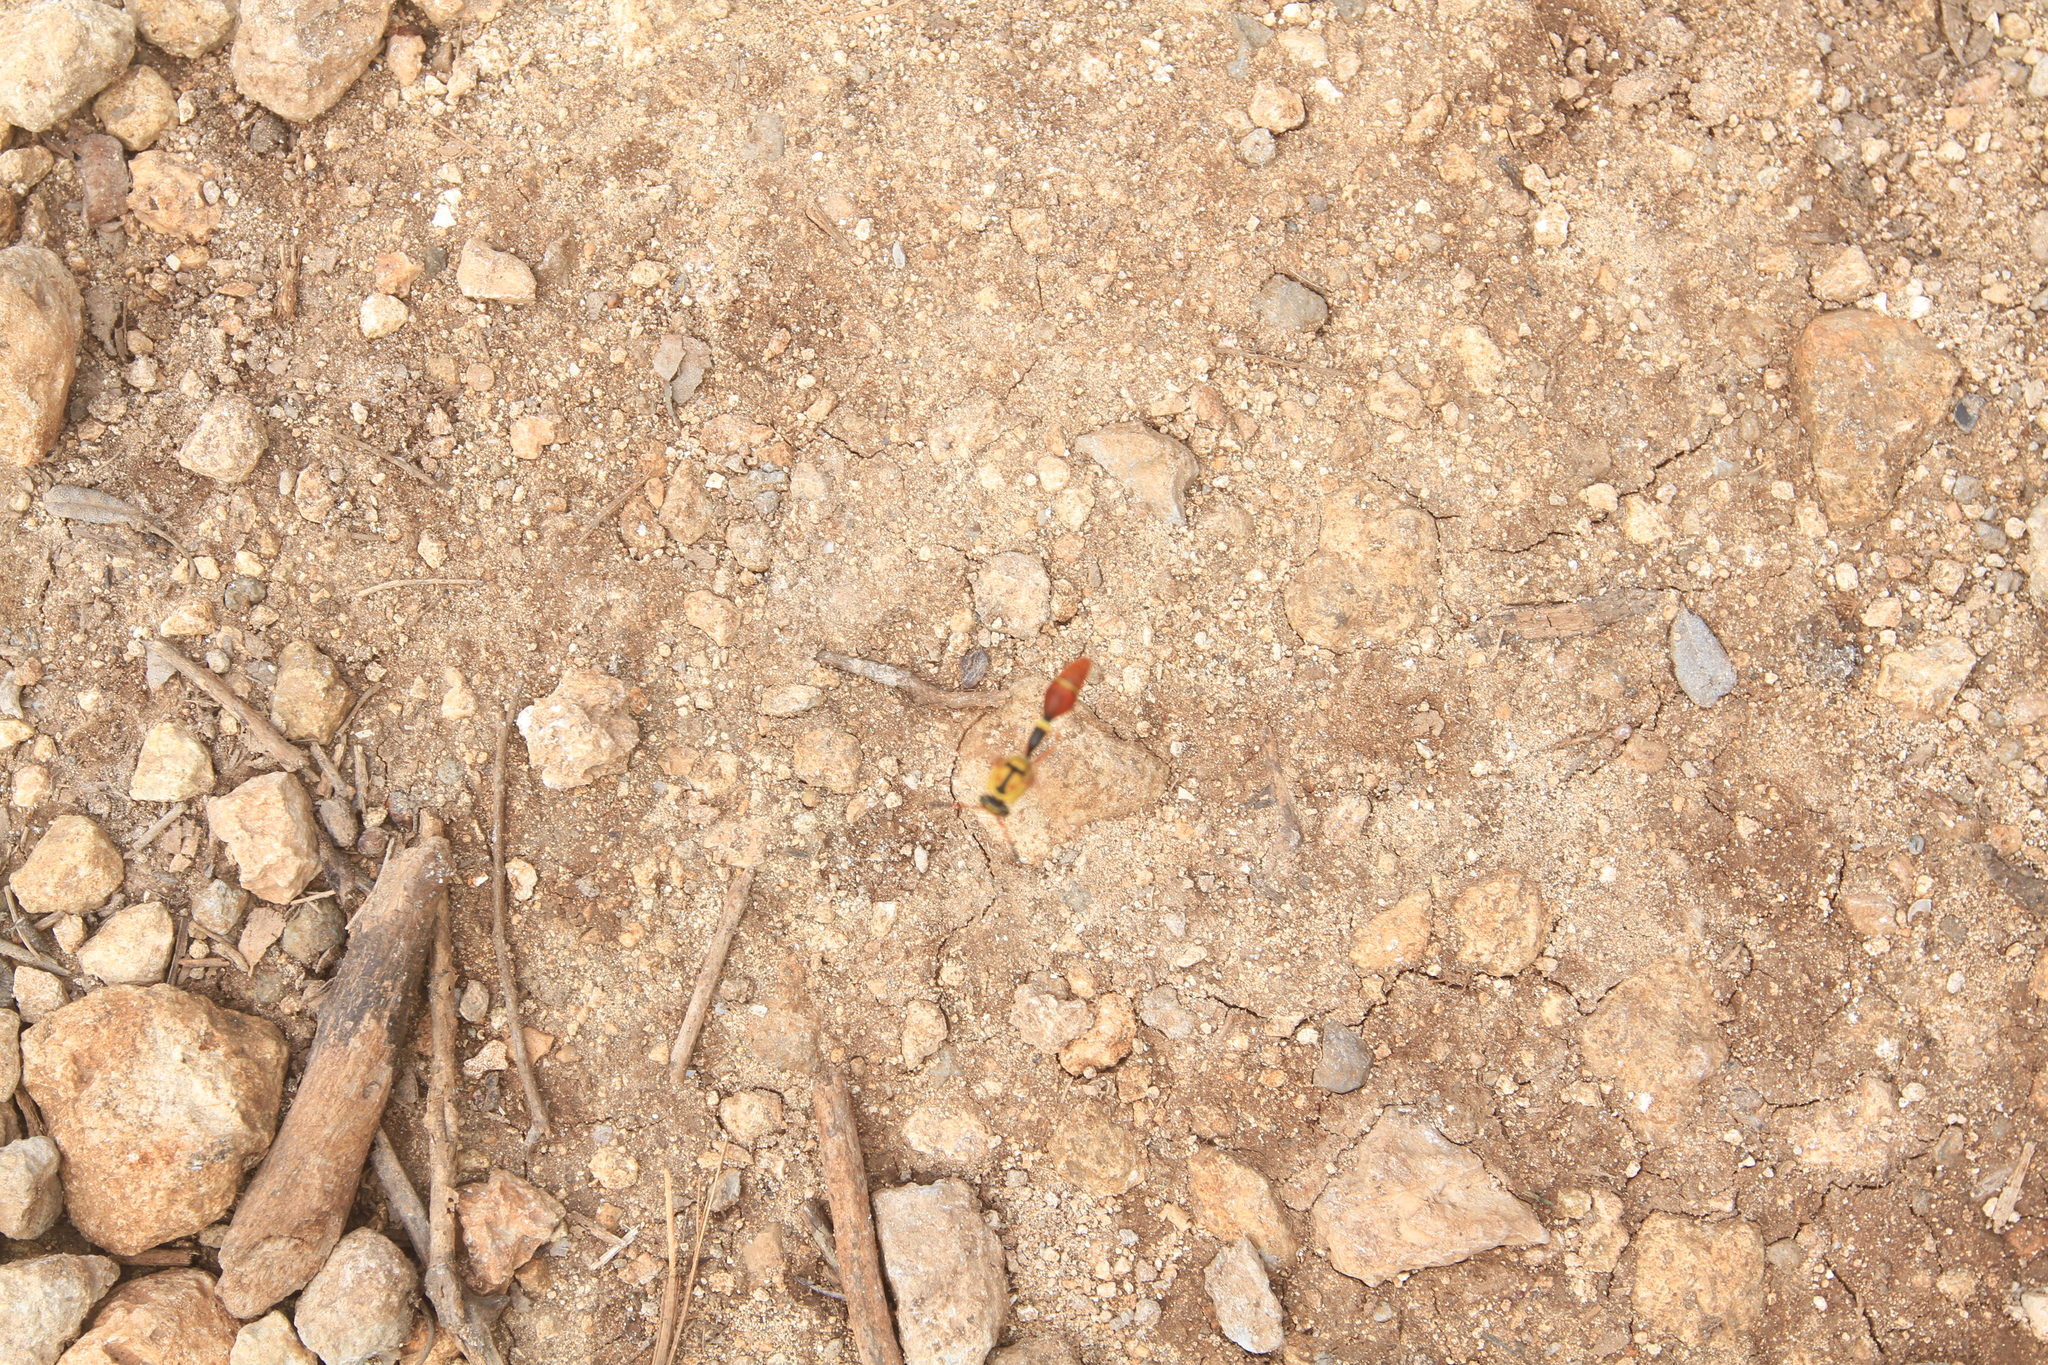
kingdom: Animalia
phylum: Arthropoda
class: Insecta
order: Hymenoptera
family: Eumenidae
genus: Zeta
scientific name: Zeta abdominale
